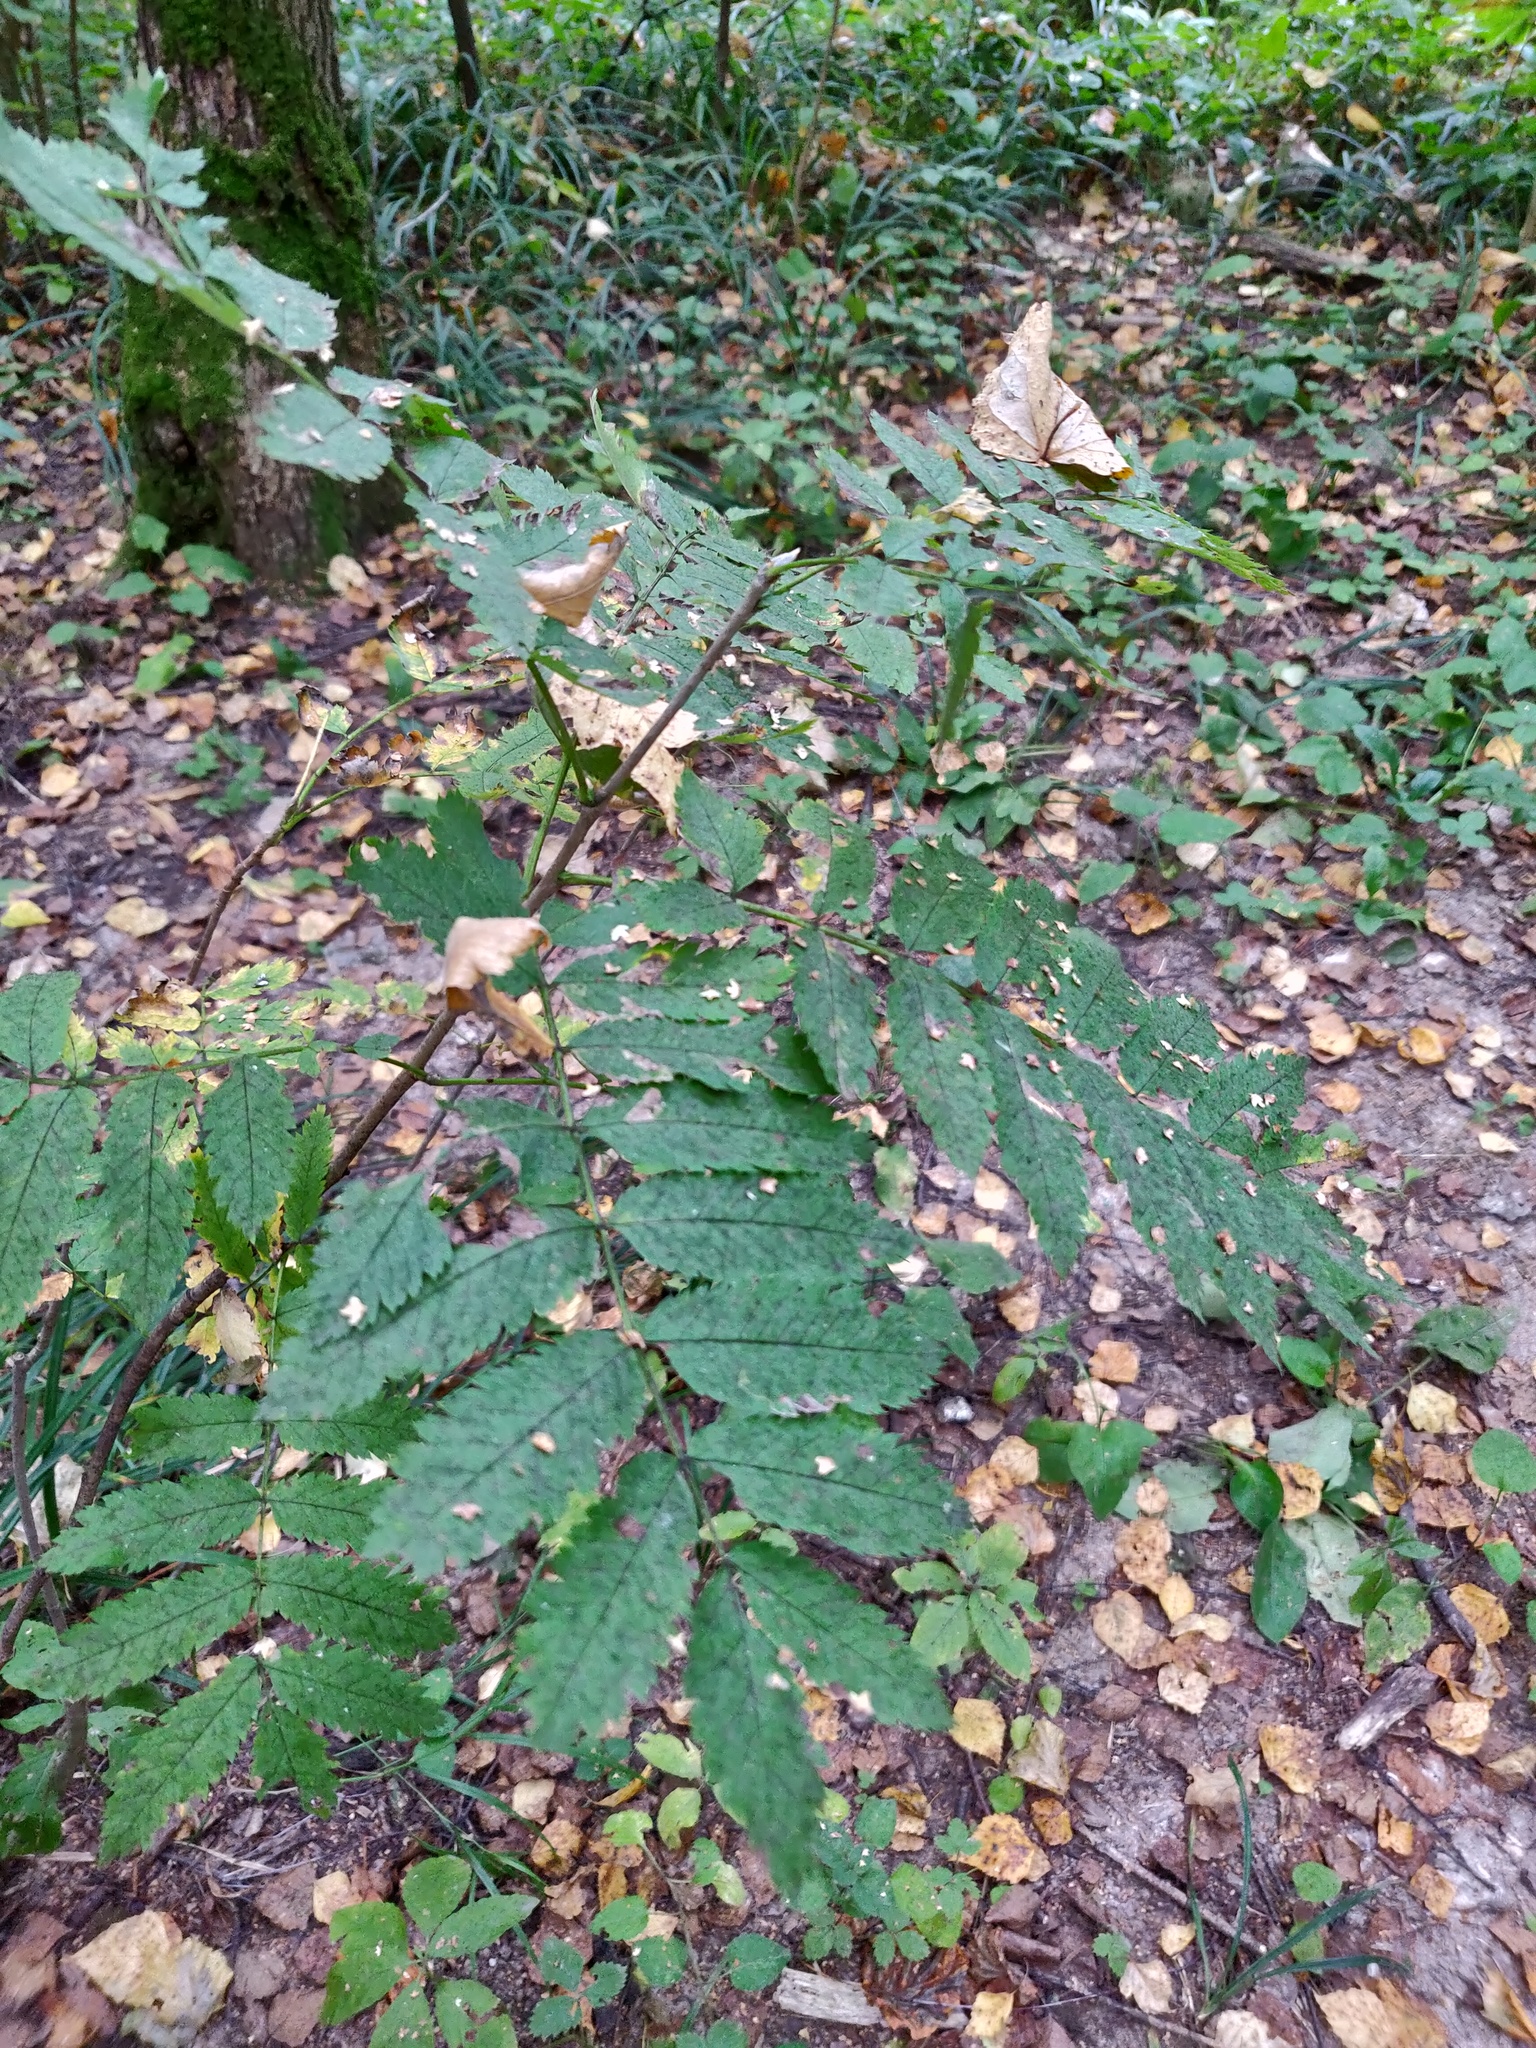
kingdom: Plantae
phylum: Tracheophyta
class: Magnoliopsida
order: Rosales
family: Rosaceae
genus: Sorbus
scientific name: Sorbus aucuparia
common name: Rowan
